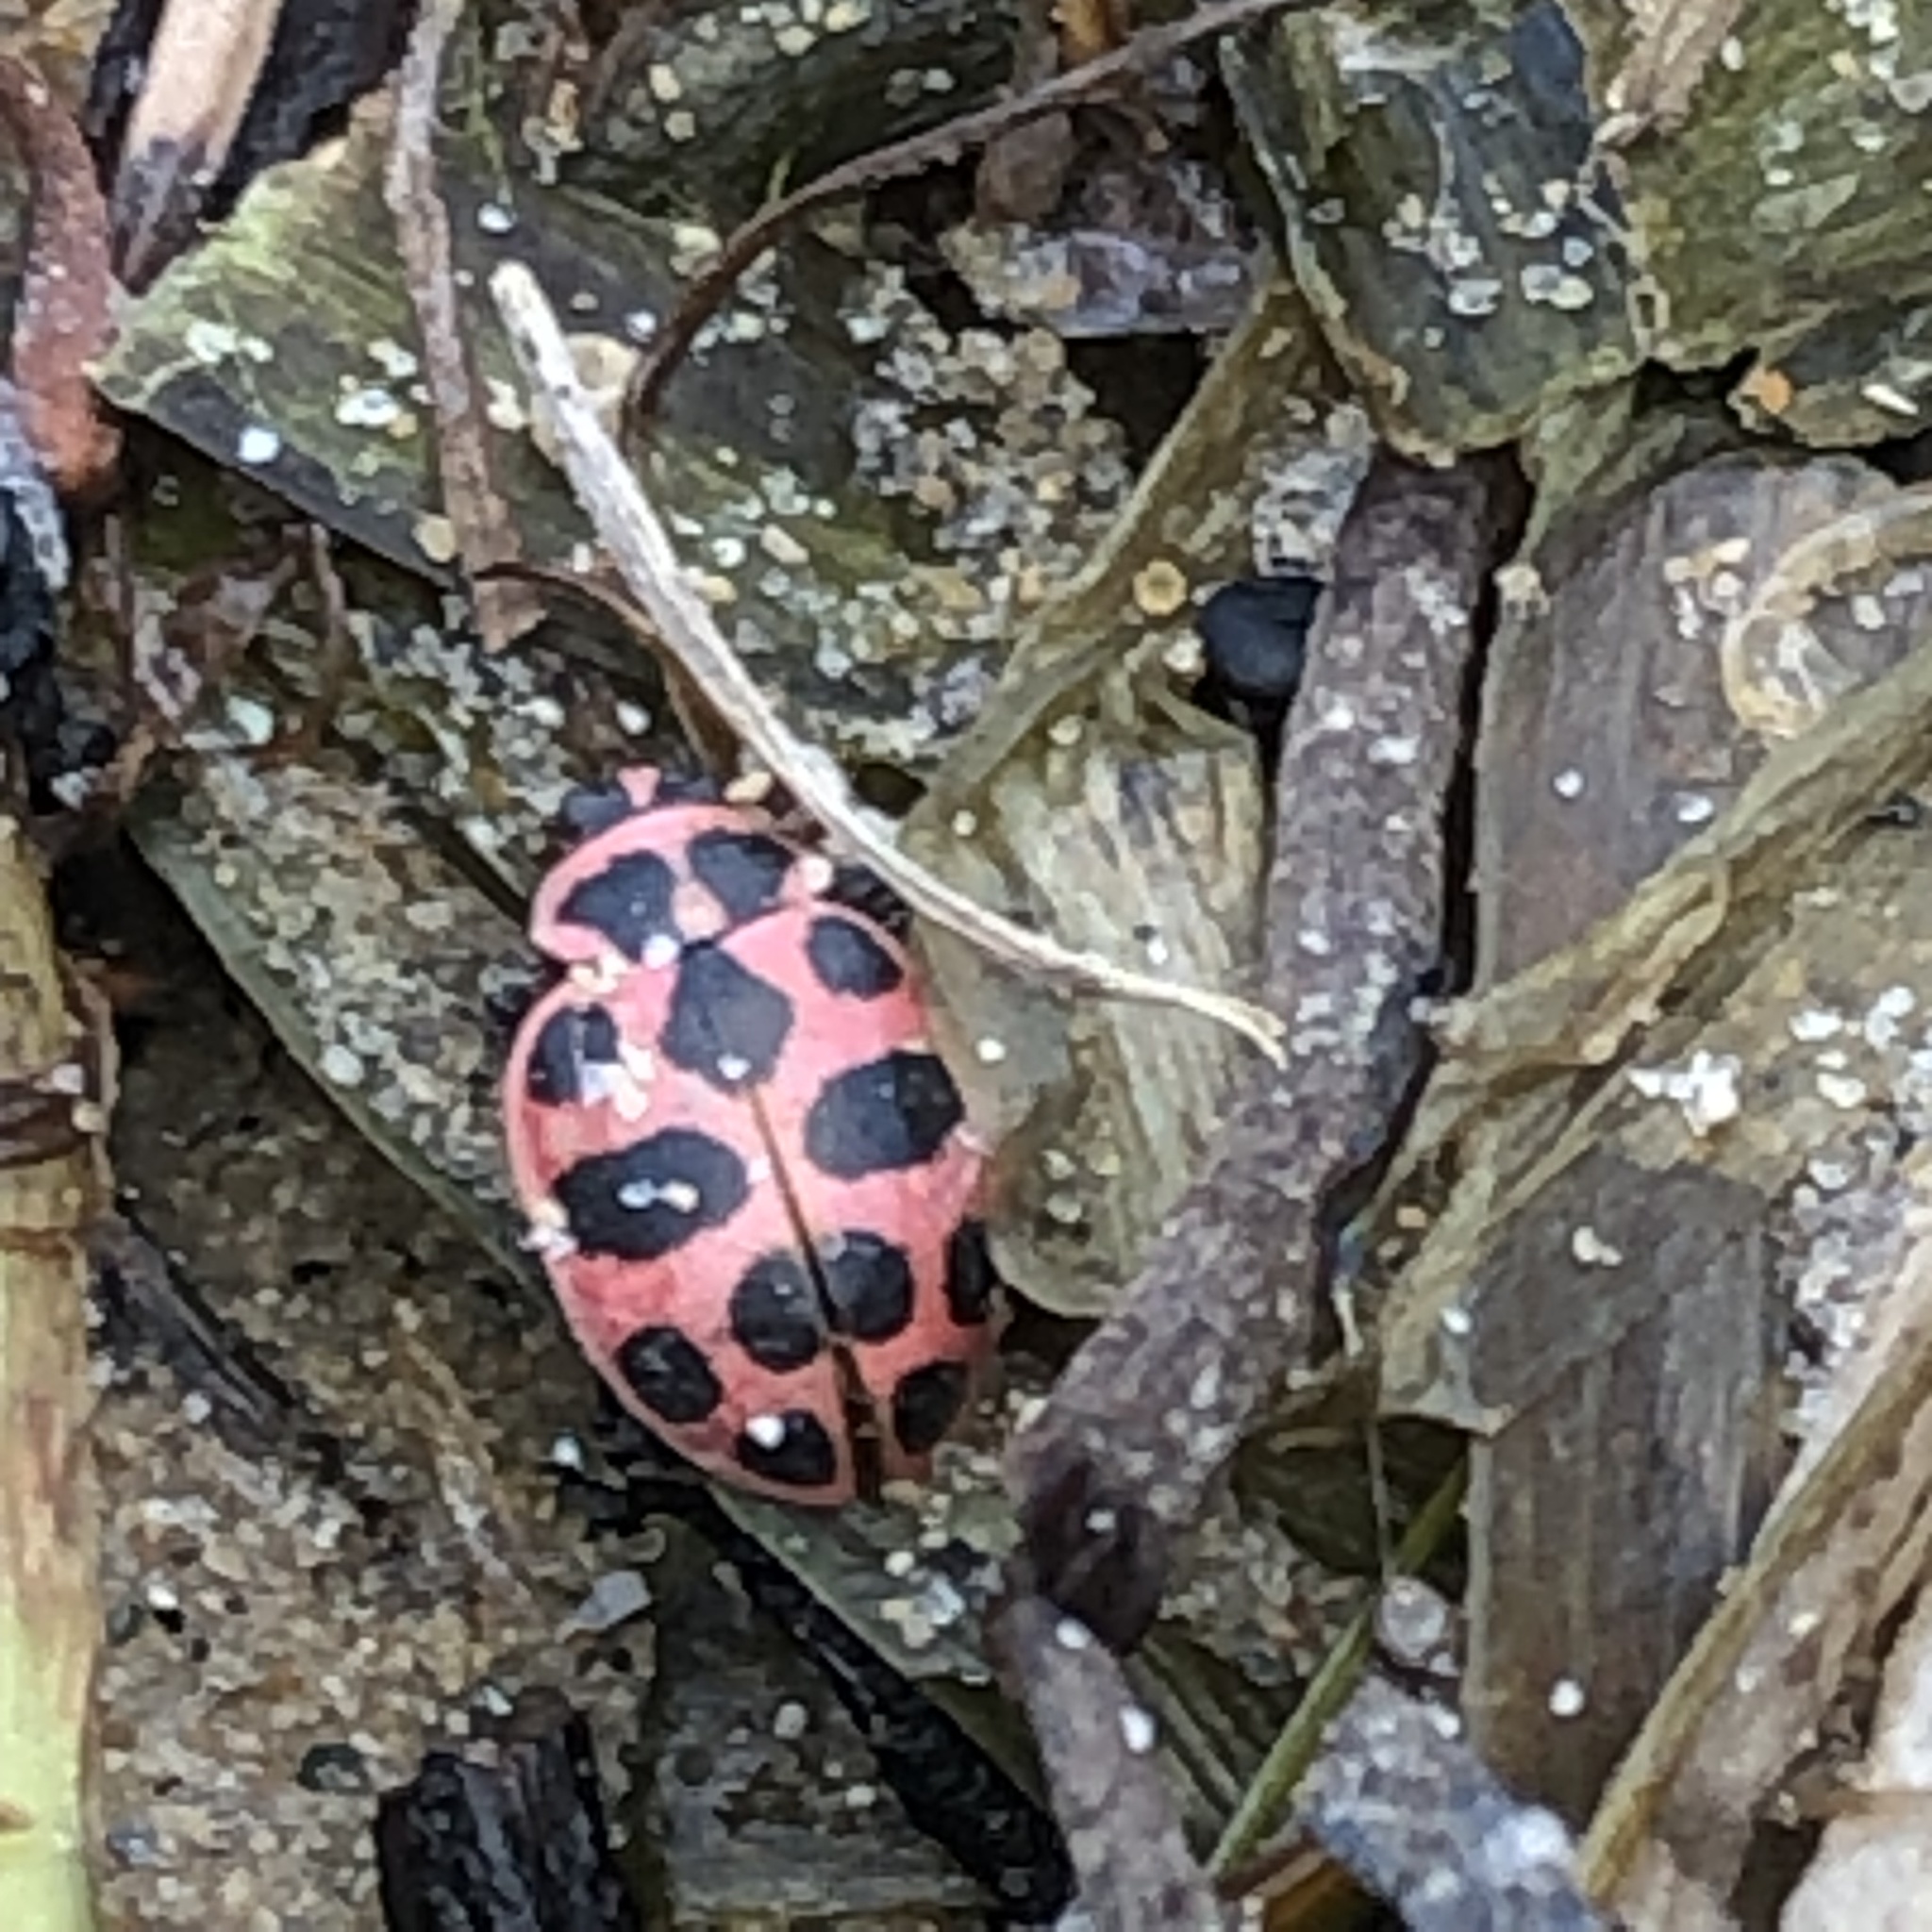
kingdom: Animalia
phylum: Arthropoda
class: Insecta
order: Coleoptera
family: Coccinellidae
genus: Coleomegilla
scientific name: Coleomegilla maculata
